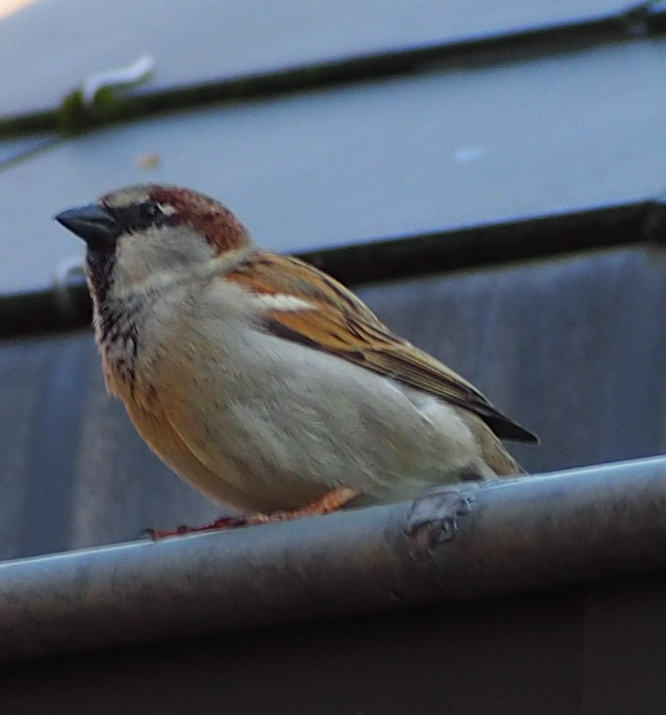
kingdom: Animalia
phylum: Chordata
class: Aves
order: Passeriformes
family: Passeridae
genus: Passer
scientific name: Passer domesticus
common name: House sparrow
